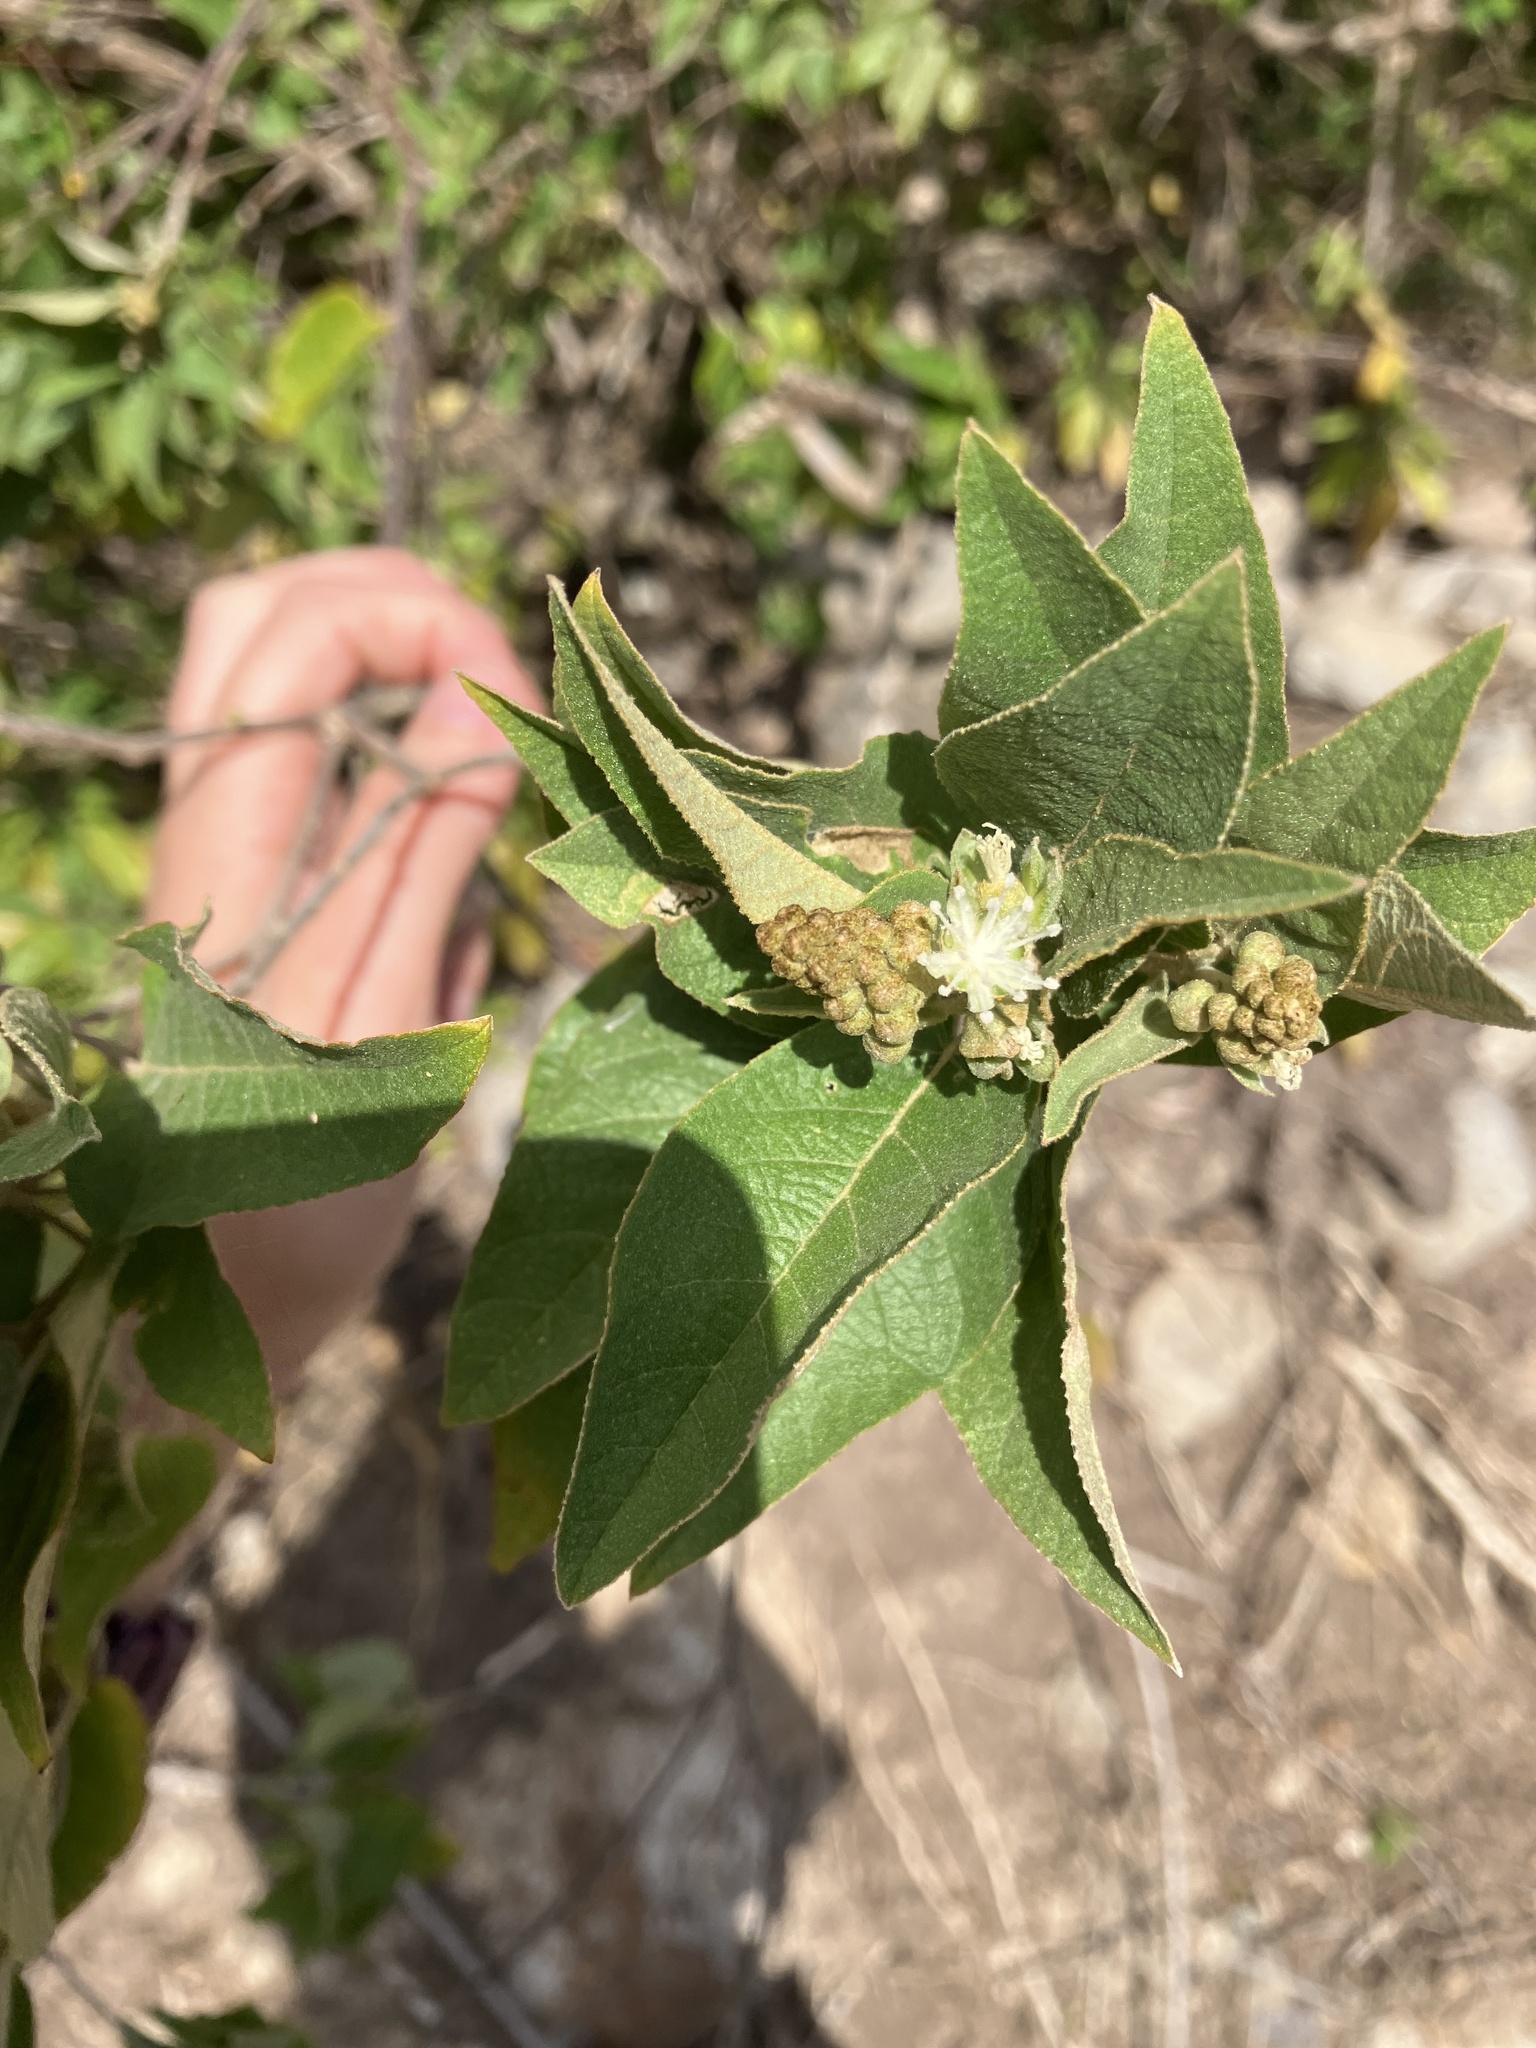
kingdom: Plantae
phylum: Tracheophyta
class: Magnoliopsida
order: Malpighiales
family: Euphorbiaceae
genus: Croton
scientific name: Croton astroites
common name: Wild marrow
